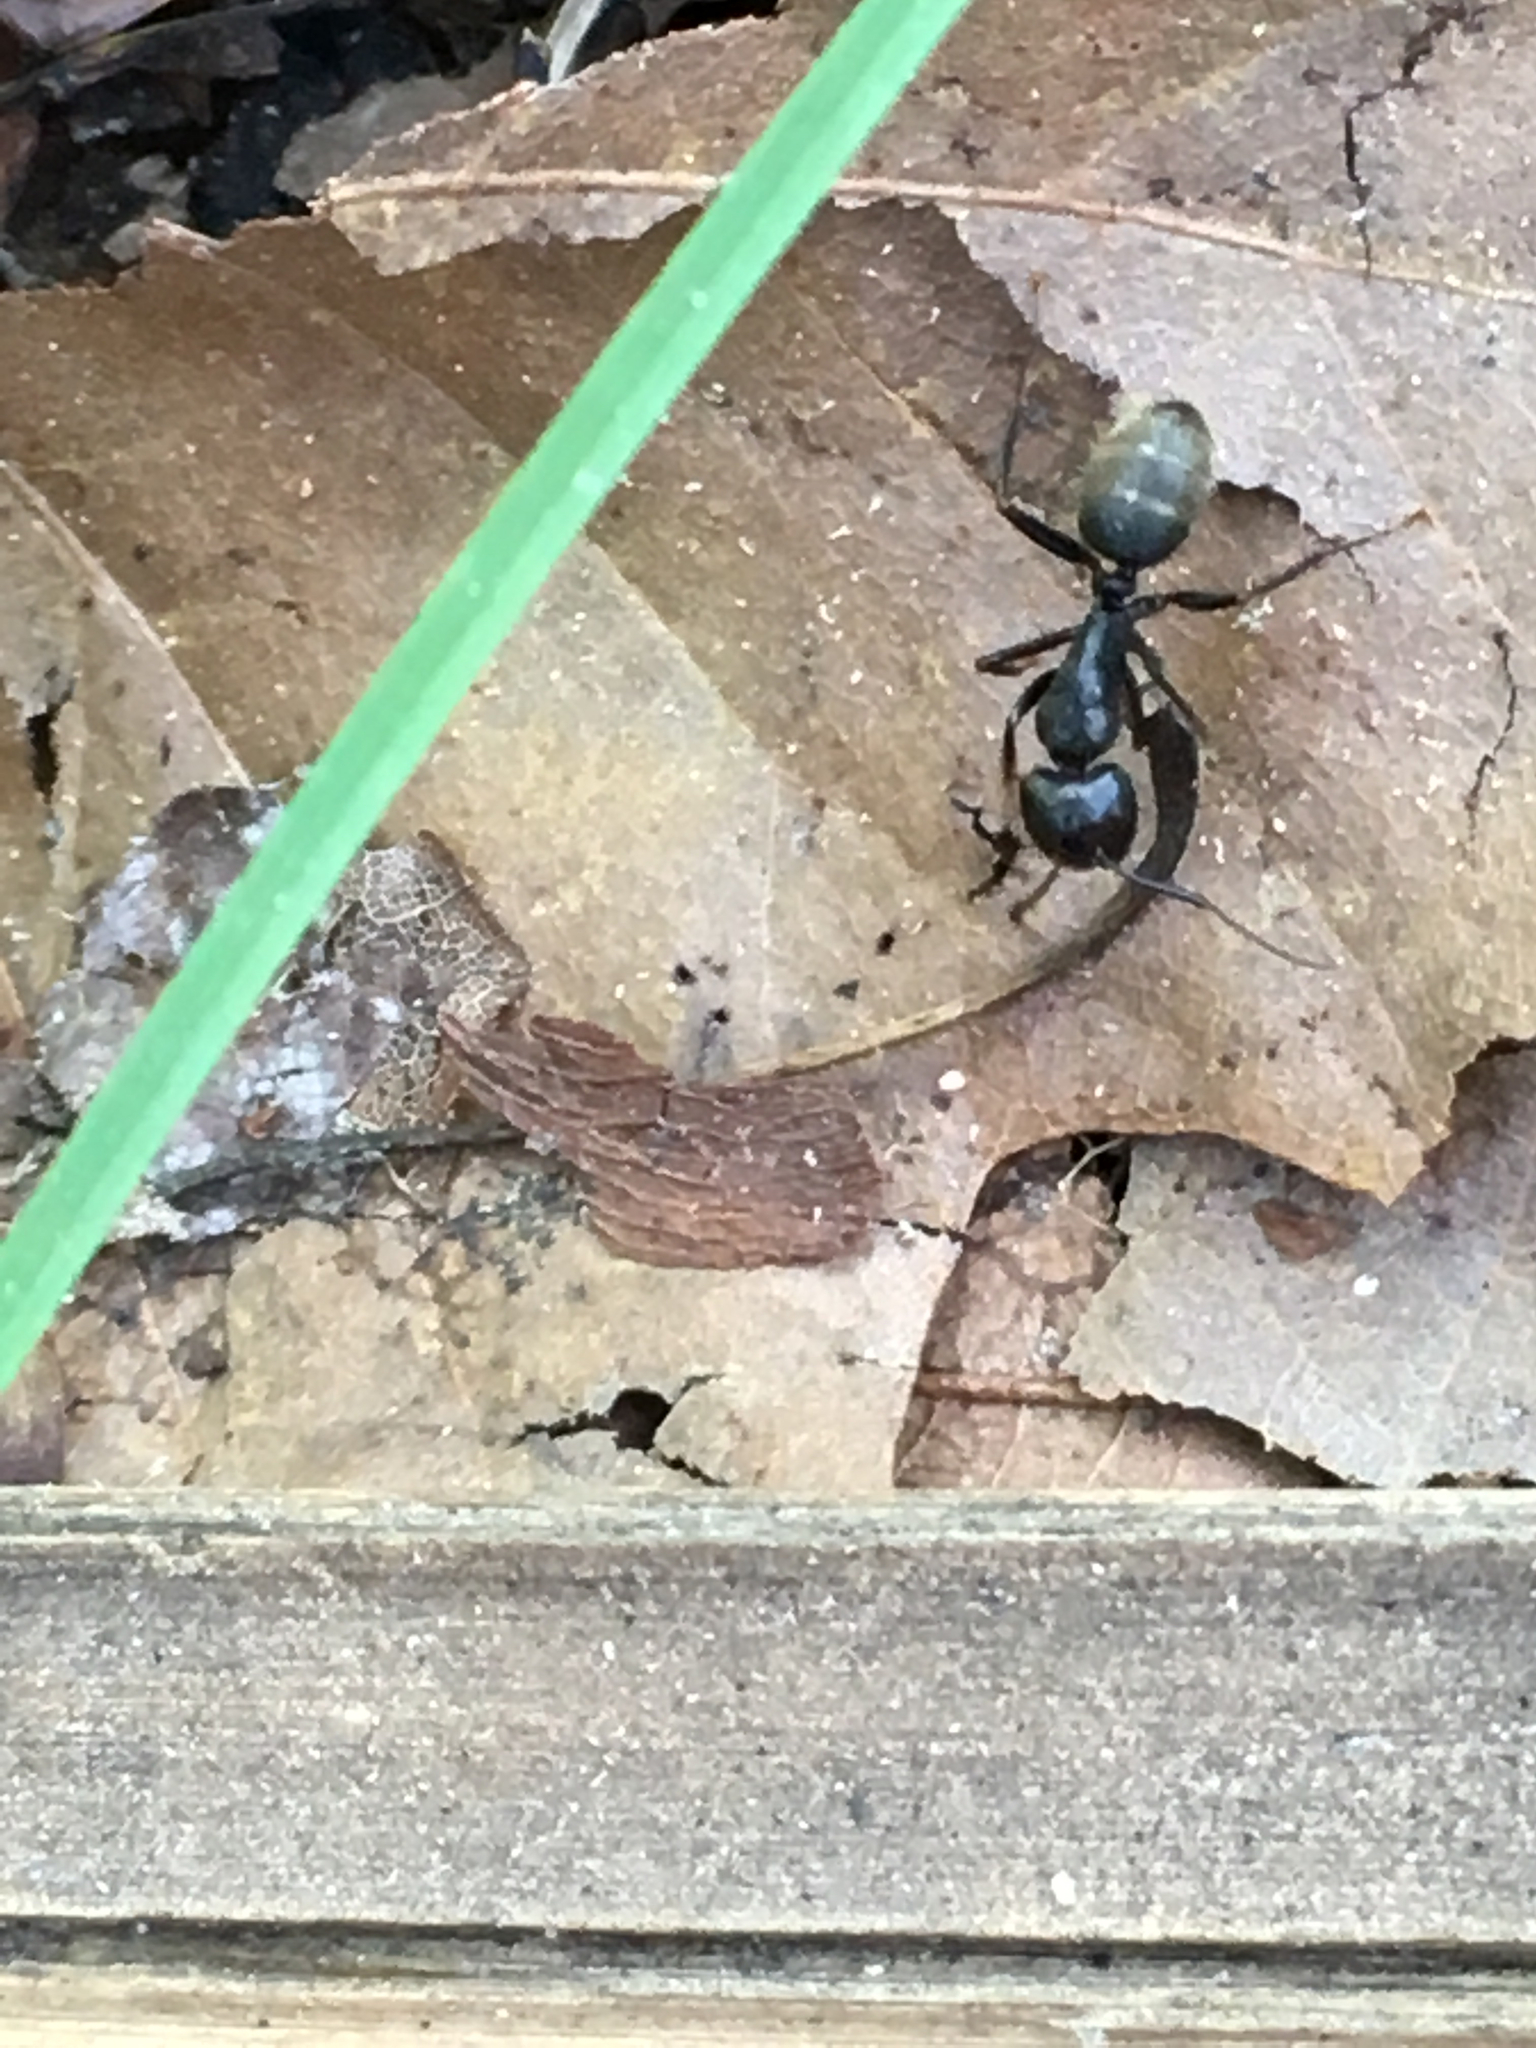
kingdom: Animalia
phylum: Arthropoda
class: Insecta
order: Hymenoptera
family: Formicidae
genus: Camponotus
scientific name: Camponotus pennsylvanicus
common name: Black carpenter ant
